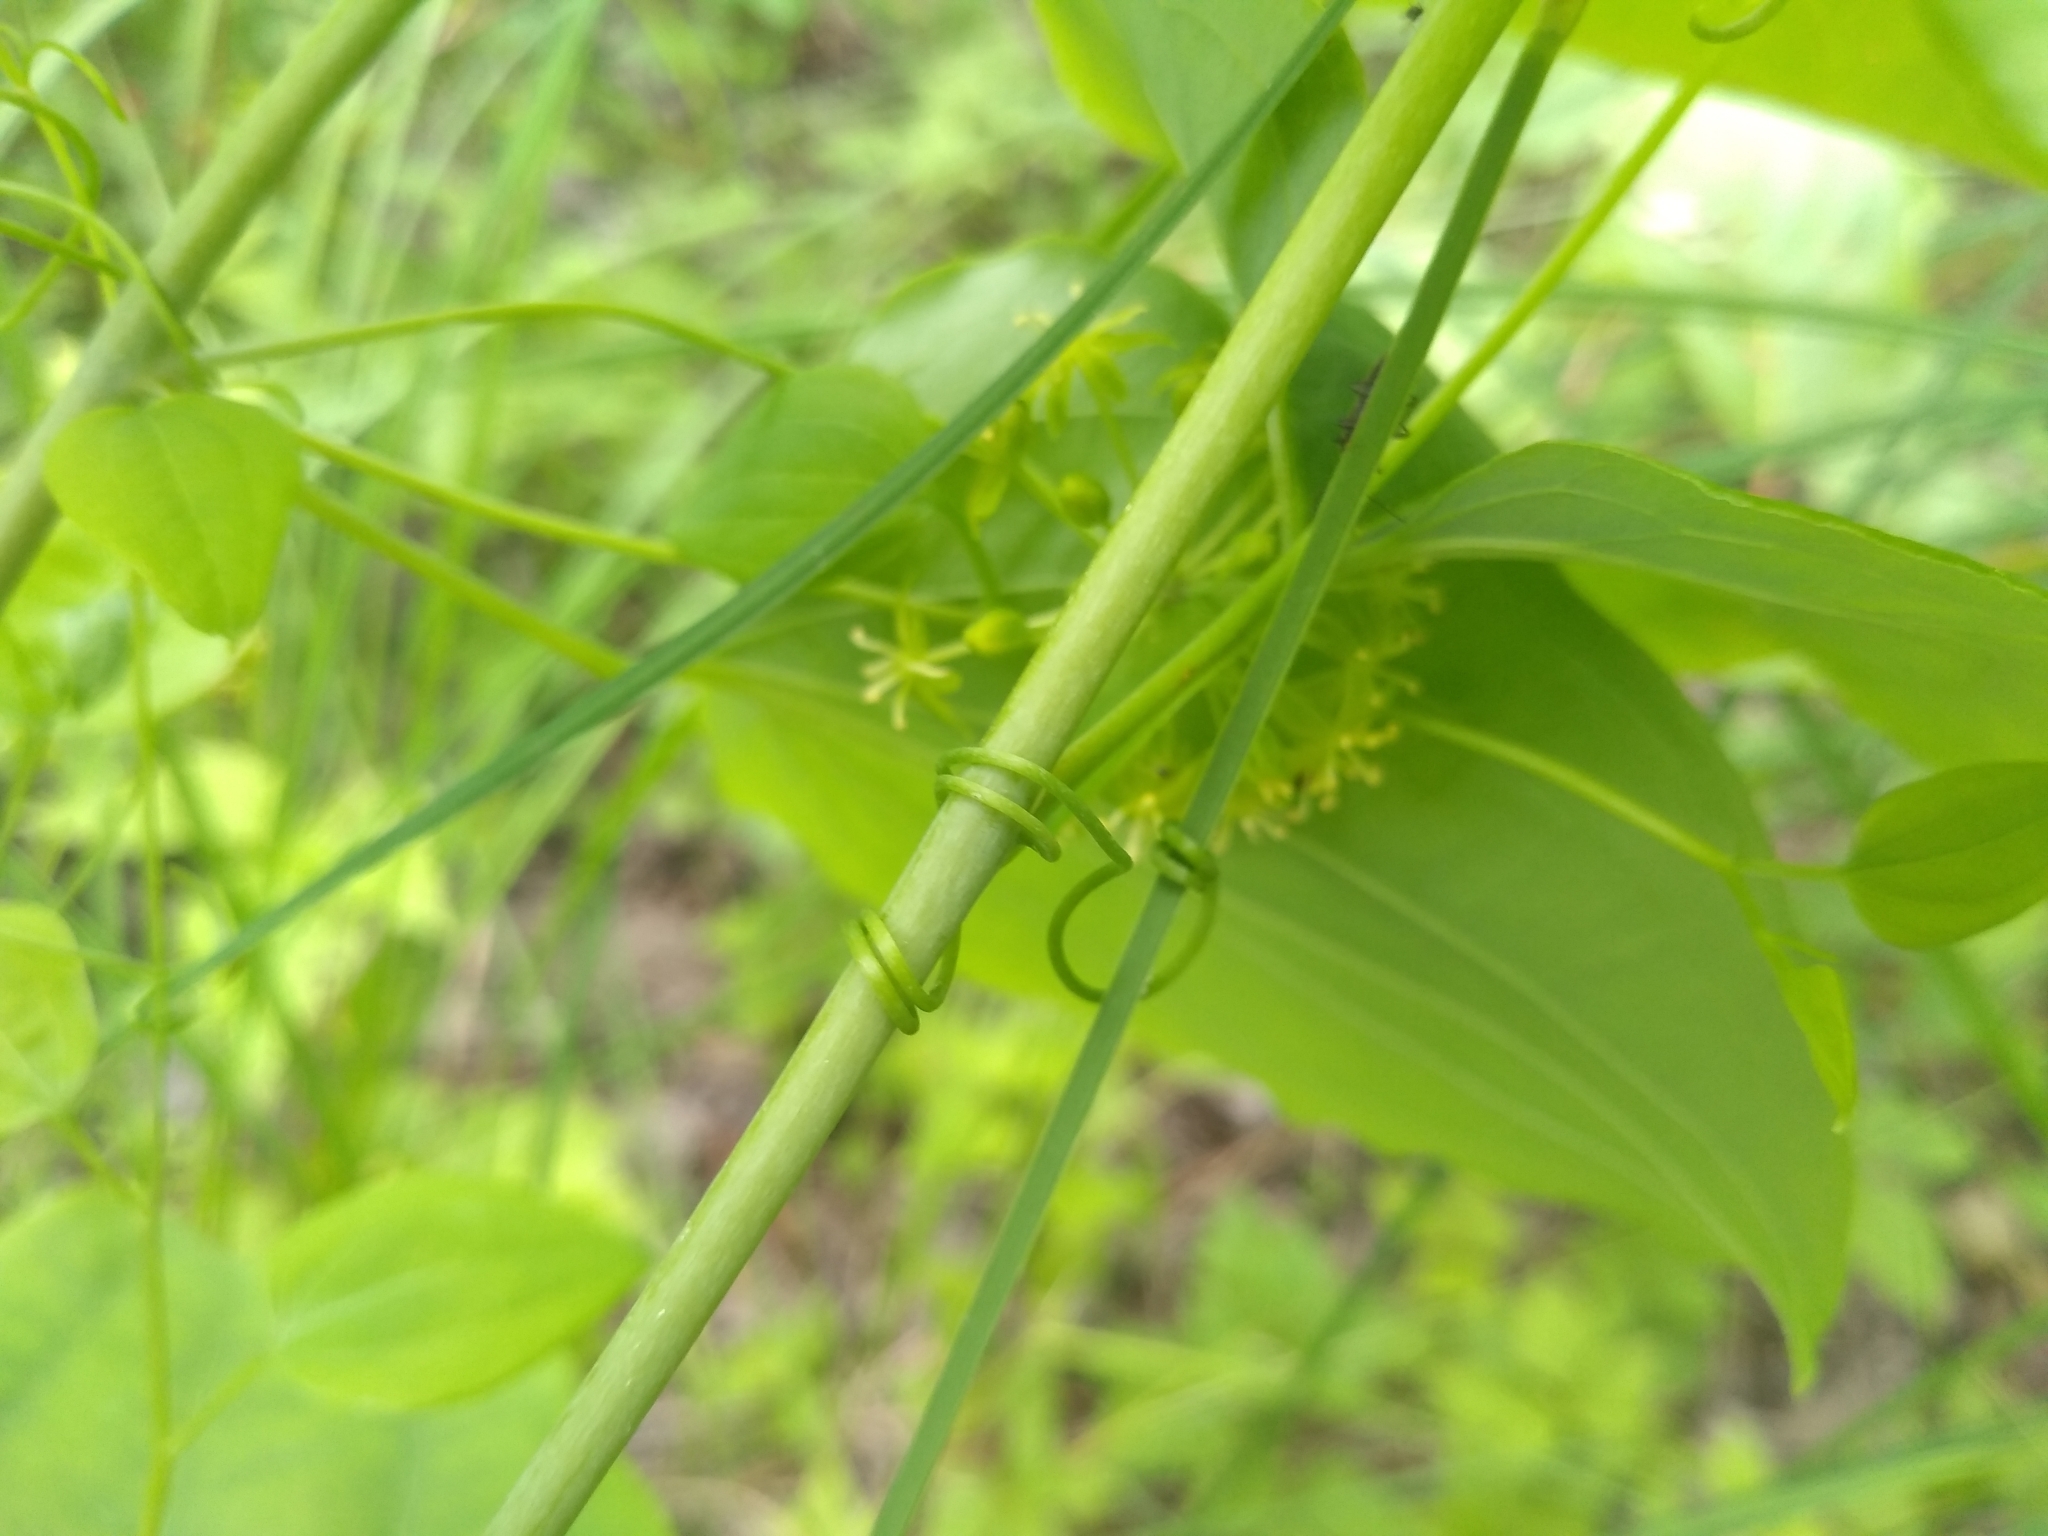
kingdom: Plantae
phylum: Tracheophyta
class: Liliopsida
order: Liliales
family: Smilacaceae
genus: Smilax
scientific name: Smilax herbacea
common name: Jacob's-ladder
